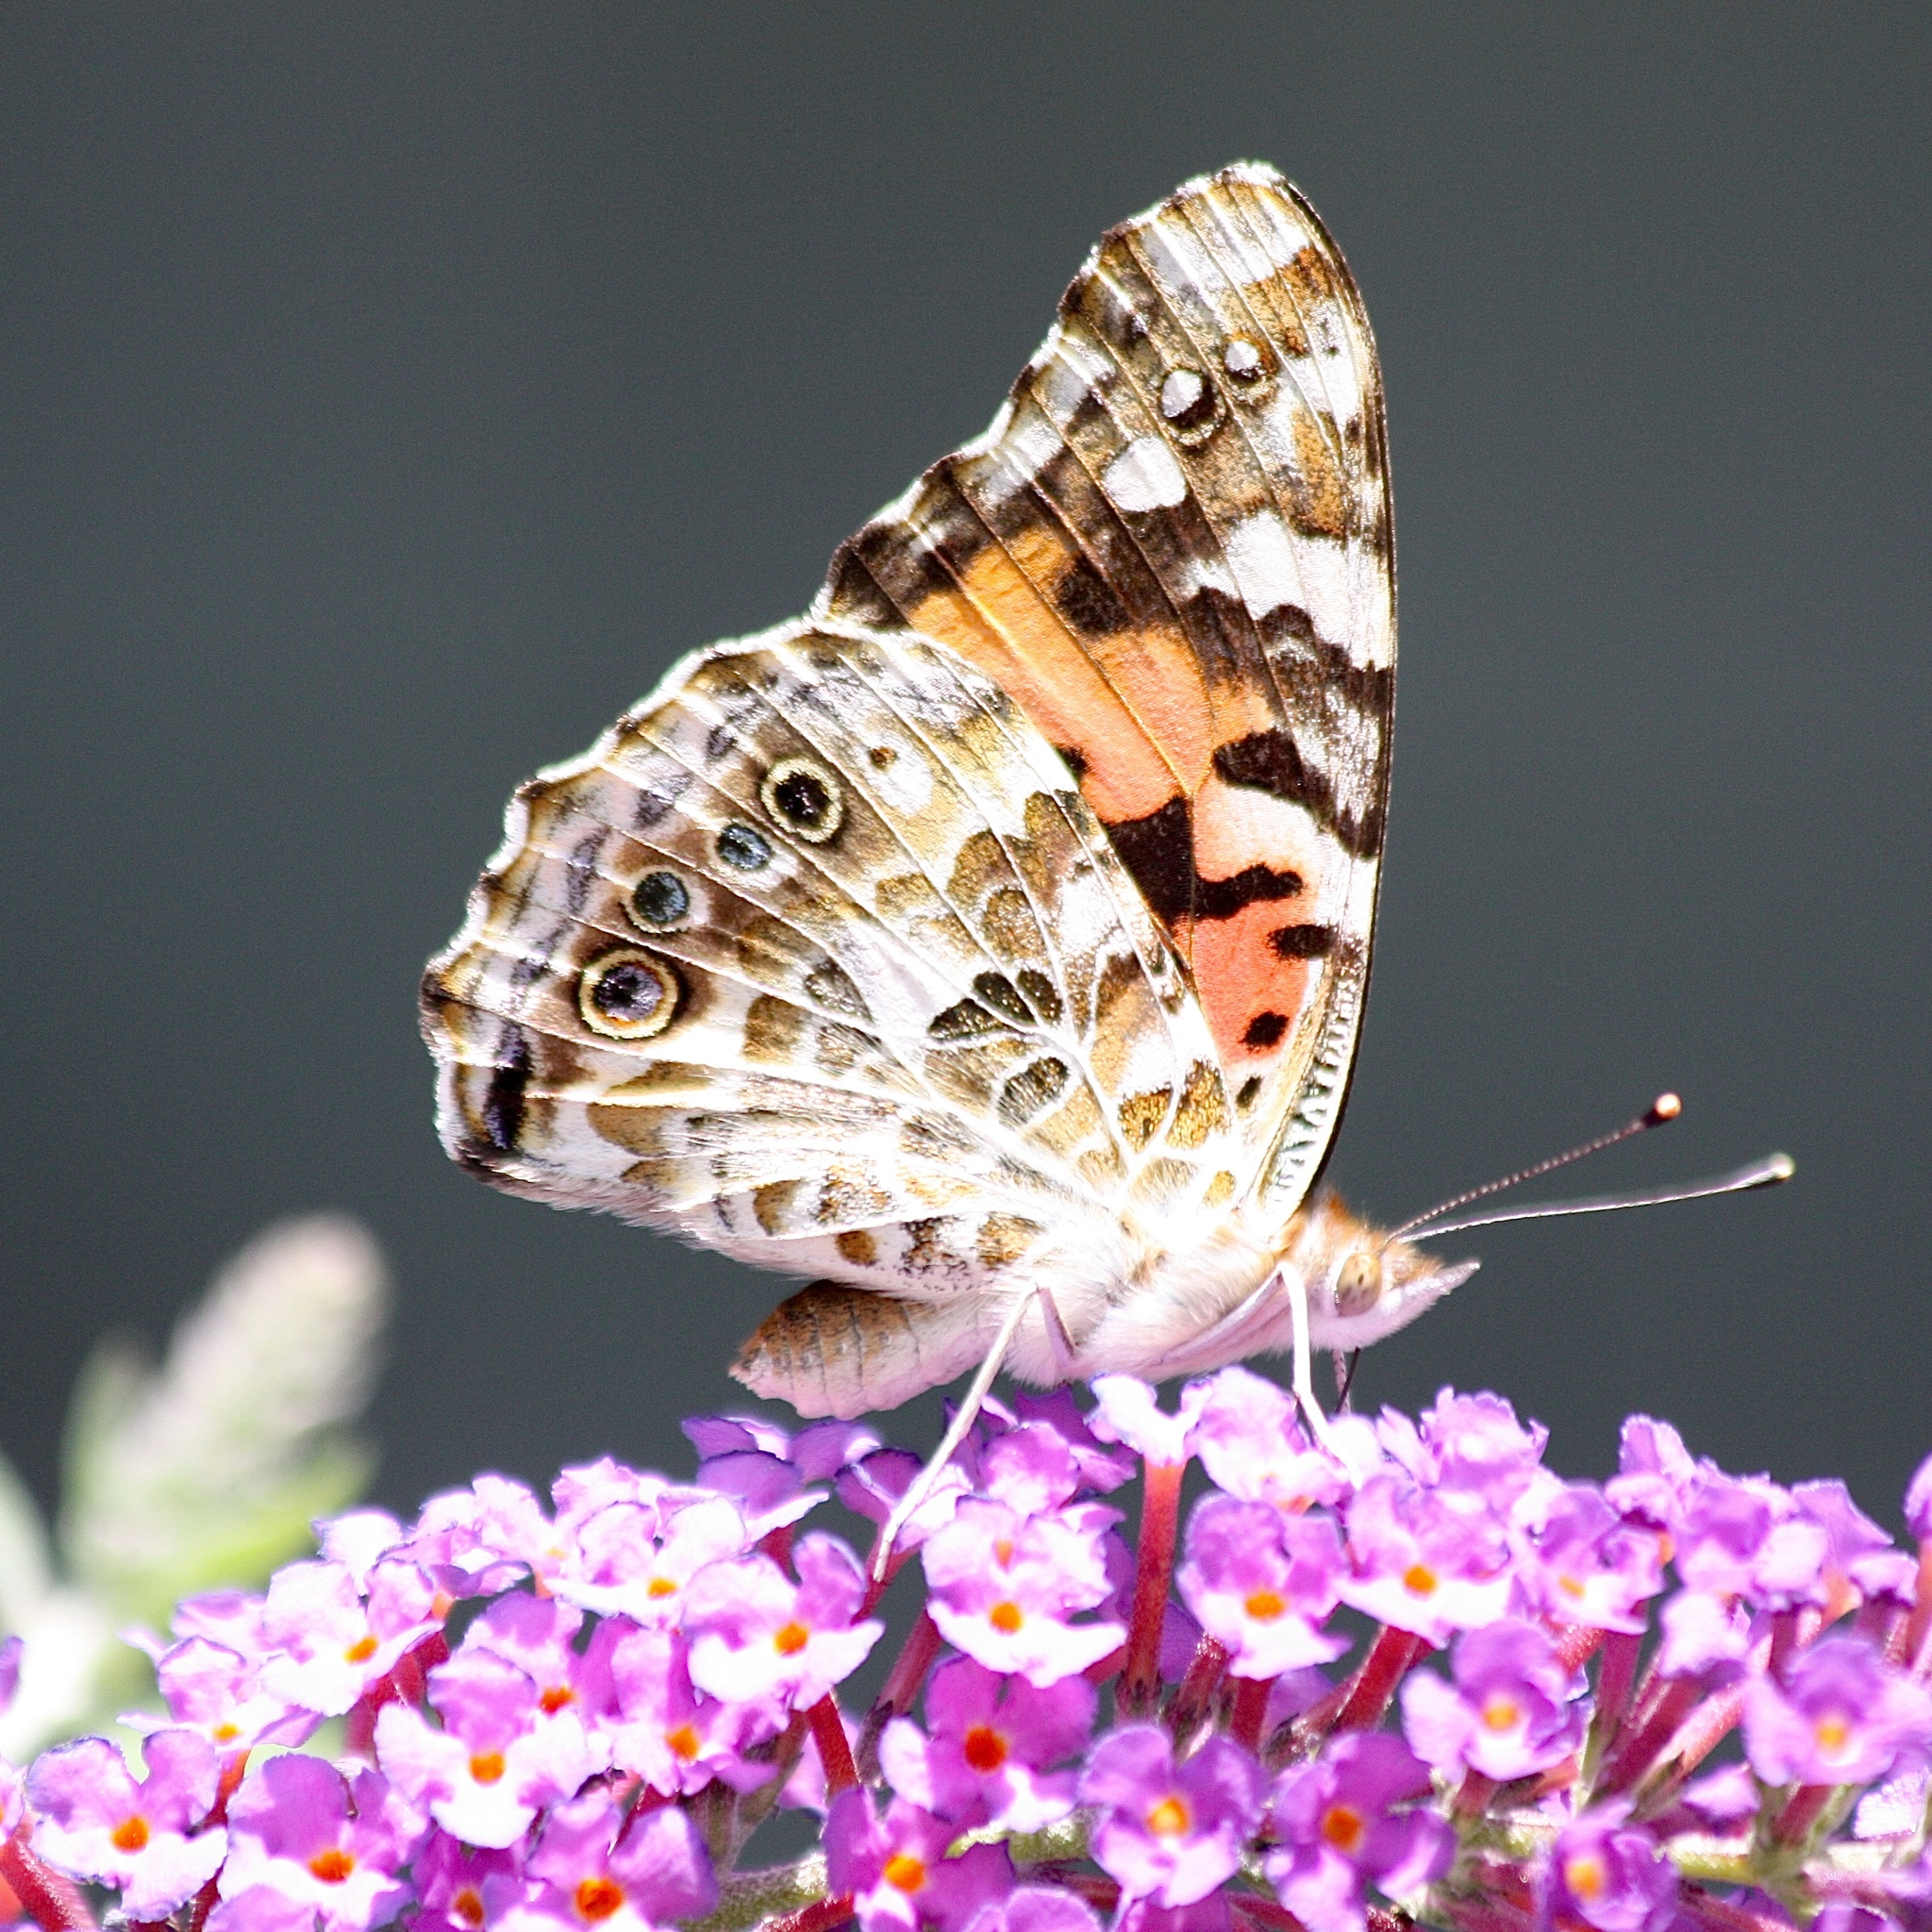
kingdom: Animalia
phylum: Arthropoda
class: Insecta
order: Lepidoptera
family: Nymphalidae
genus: Vanessa
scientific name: Vanessa cardui
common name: Painted lady
